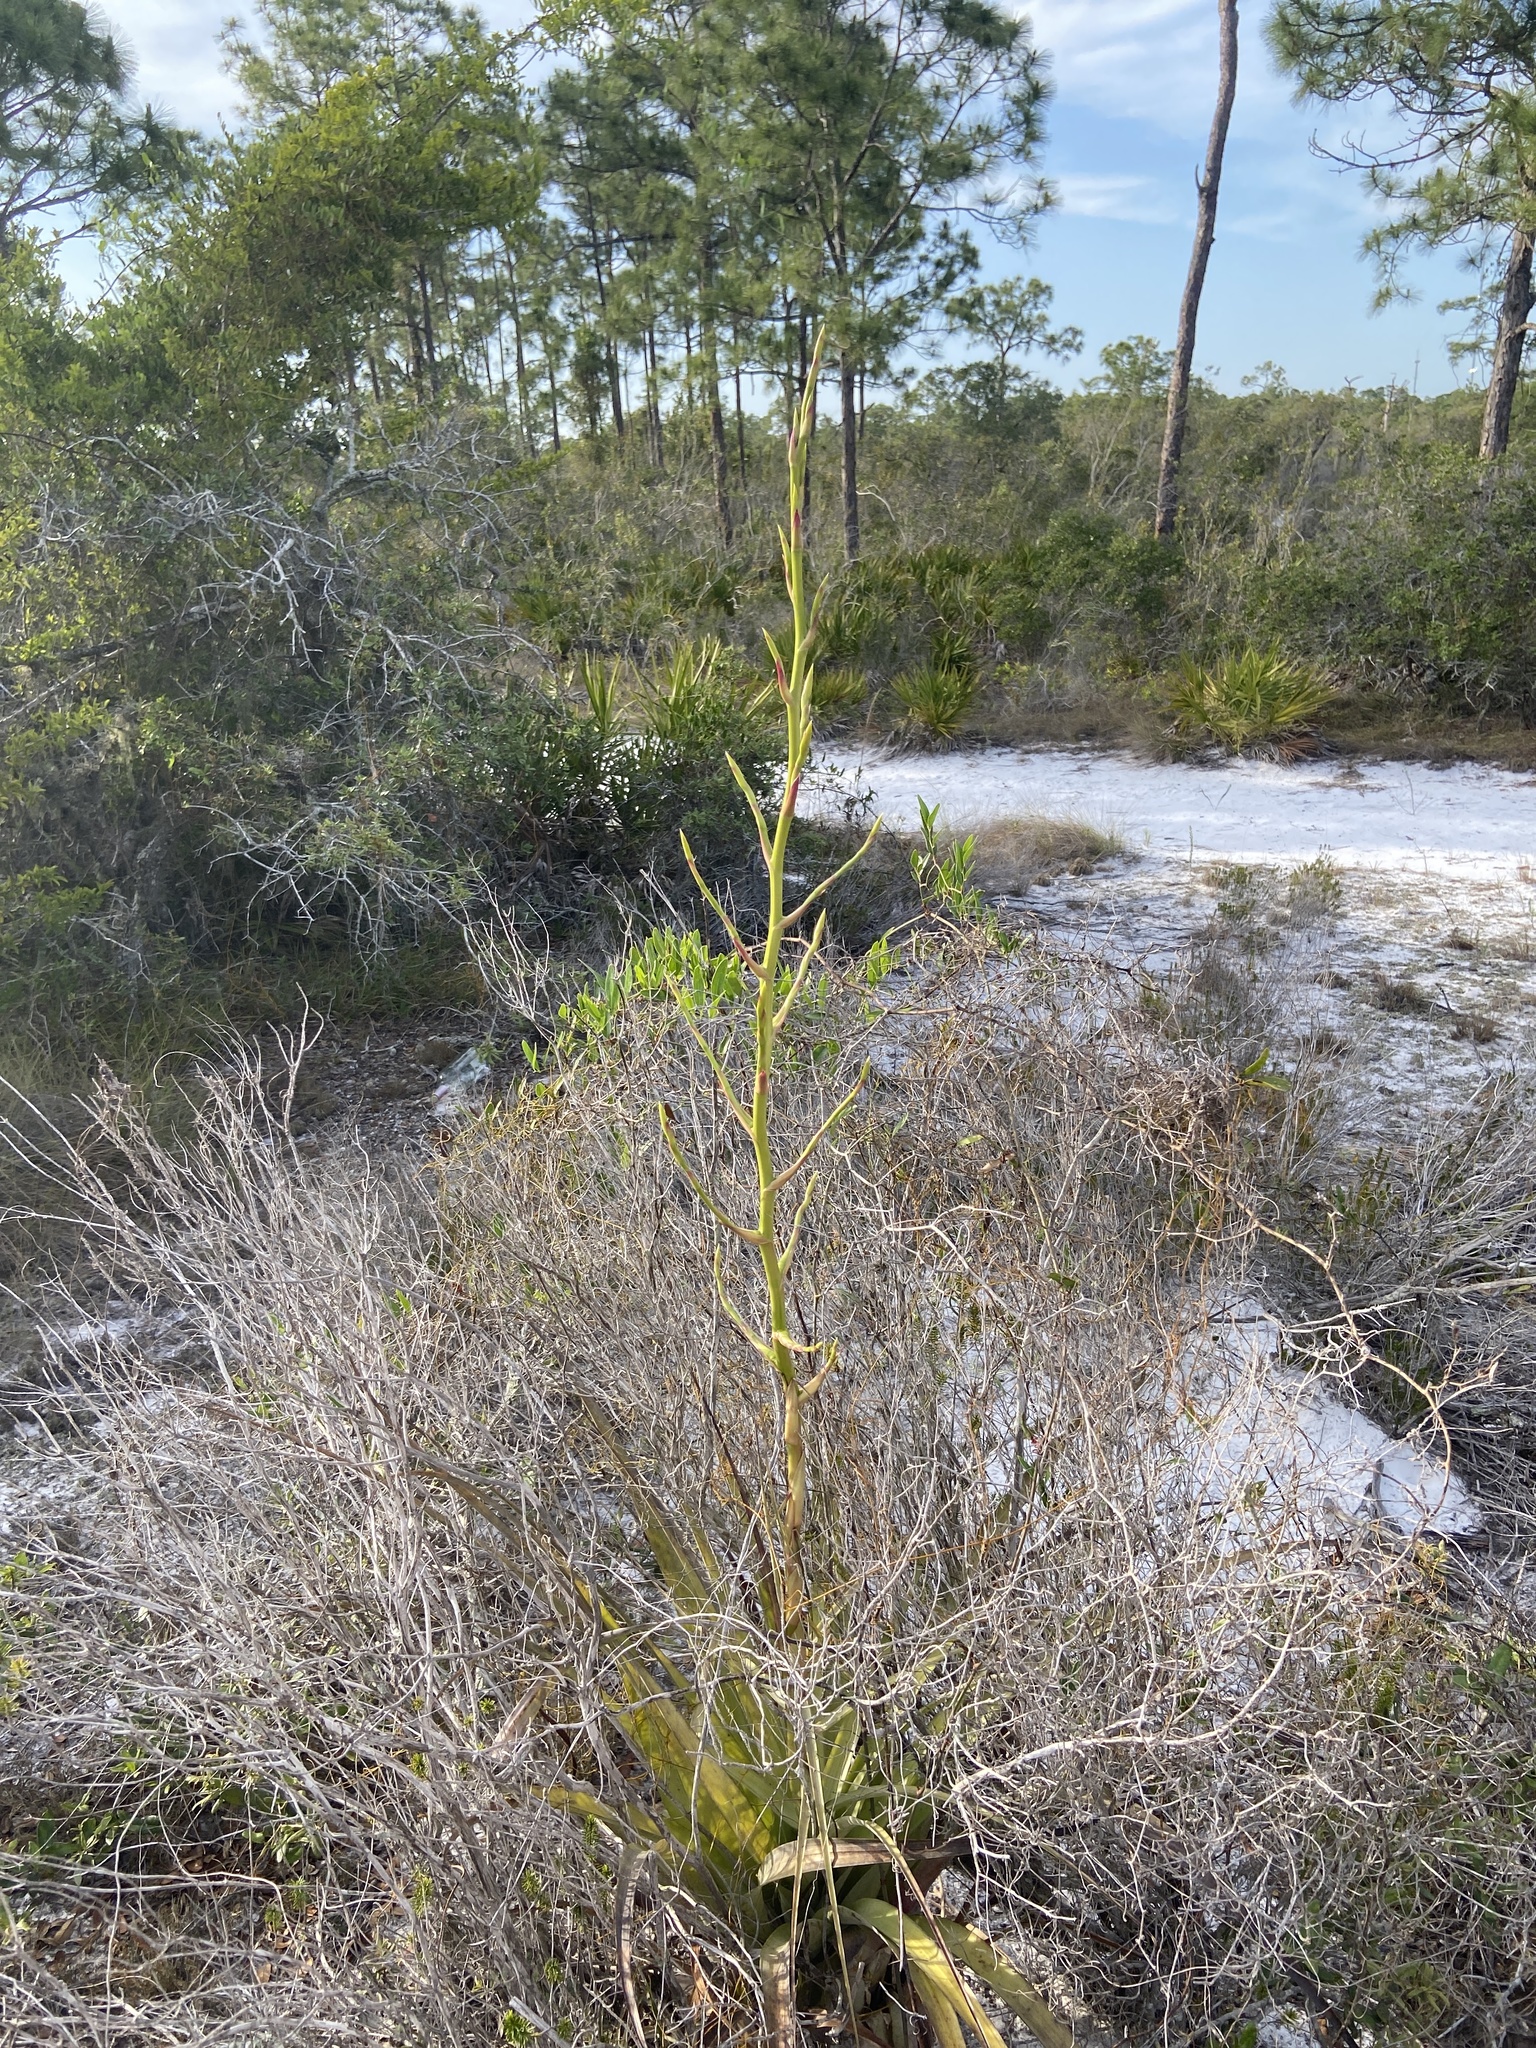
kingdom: Plantae
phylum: Tracheophyta
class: Liliopsida
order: Poales
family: Bromeliaceae
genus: Tillandsia
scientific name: Tillandsia utriculata
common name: Wild pine
